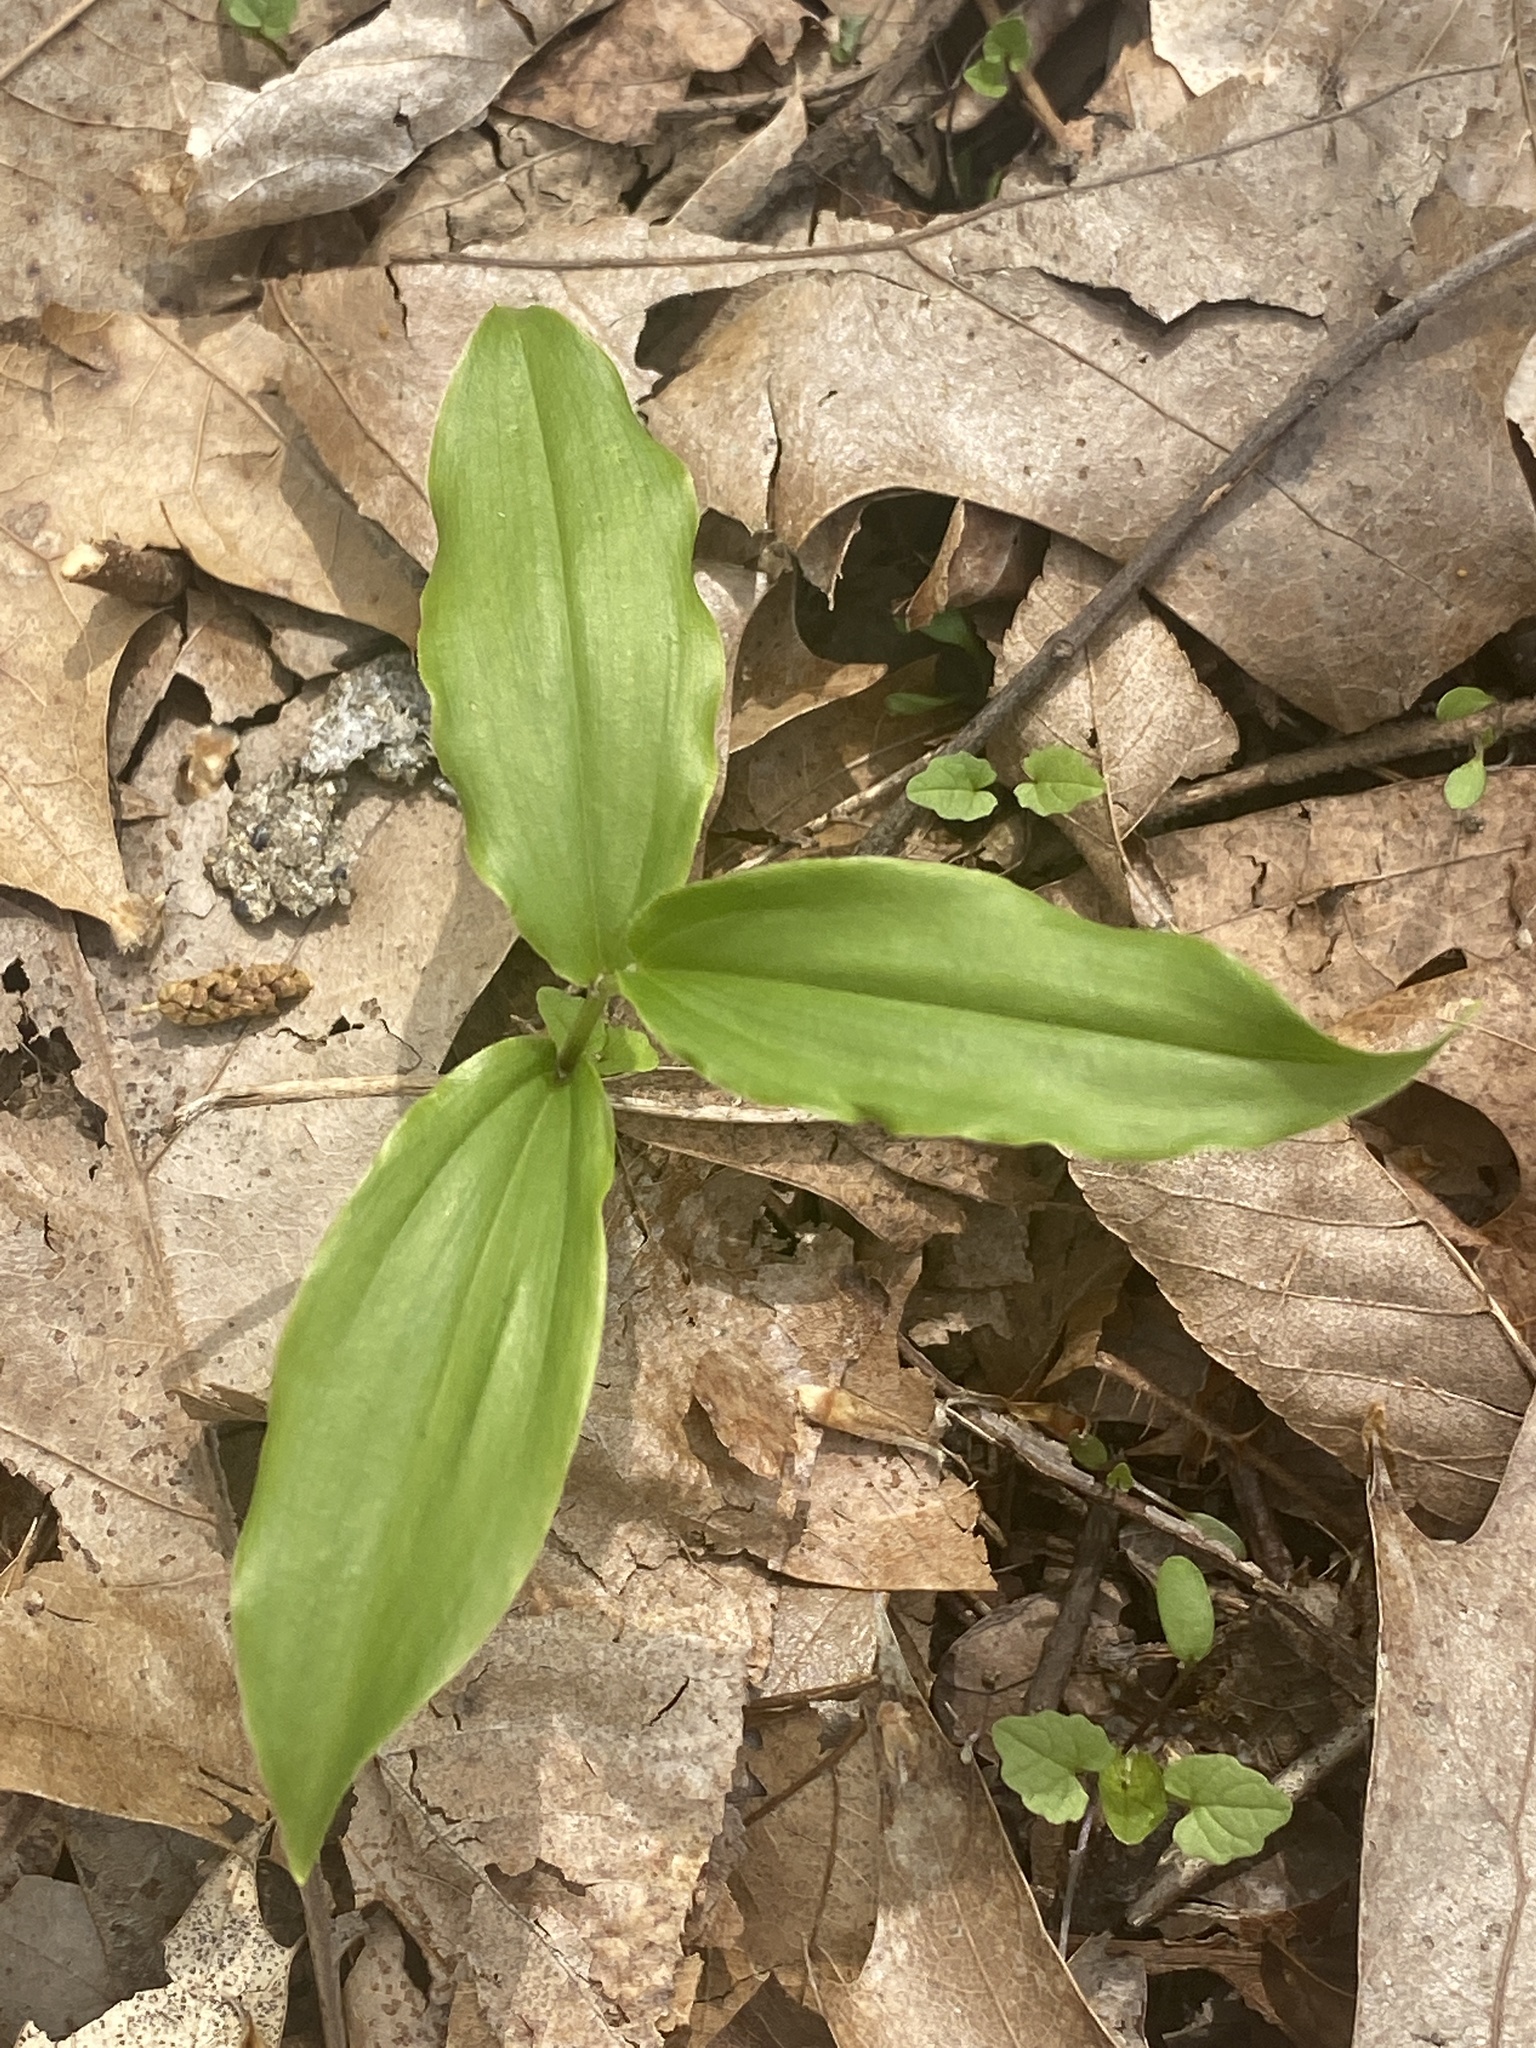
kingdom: Plantae
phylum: Tracheophyta
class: Liliopsida
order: Asparagales
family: Asparagaceae
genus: Maianthemum
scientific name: Maianthemum racemosum
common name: False spikenard
